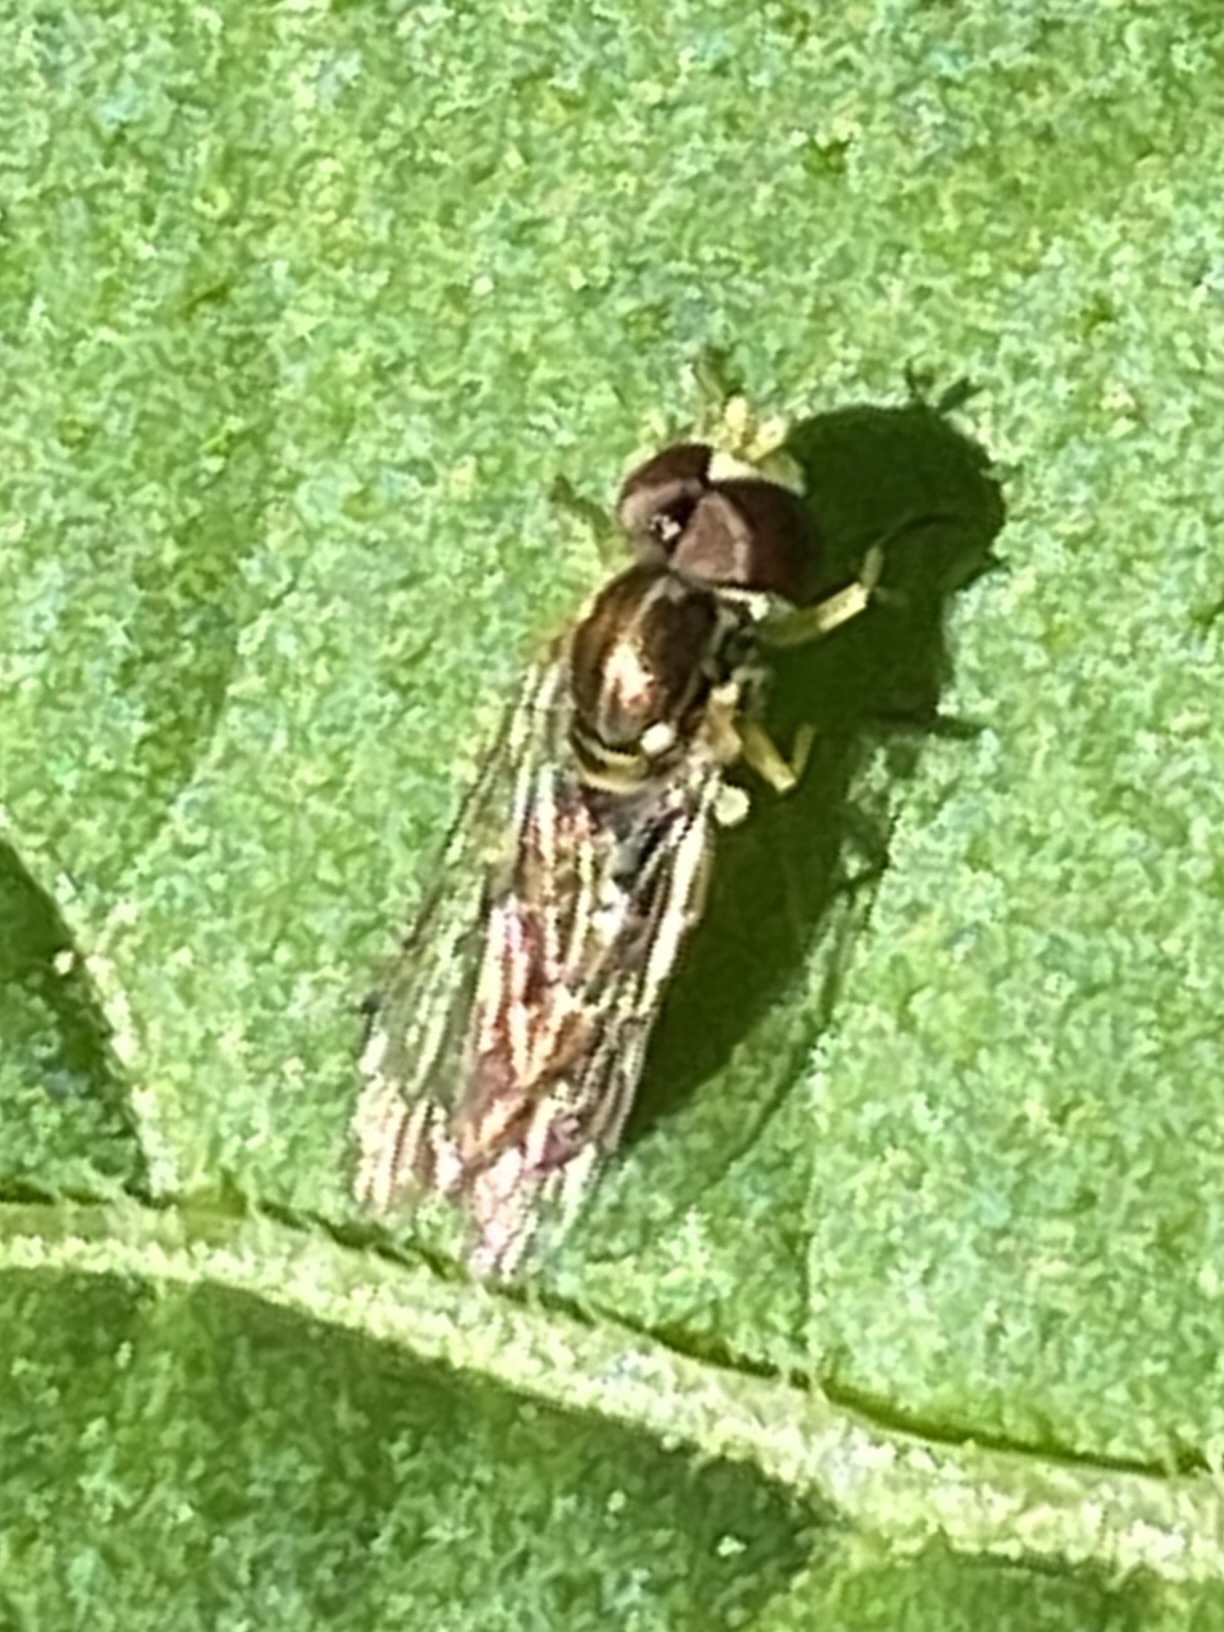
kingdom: Animalia
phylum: Arthropoda
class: Insecta
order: Diptera
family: Syrphidae
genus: Toxomerus
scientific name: Toxomerus marginatus
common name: Syrphid fly
